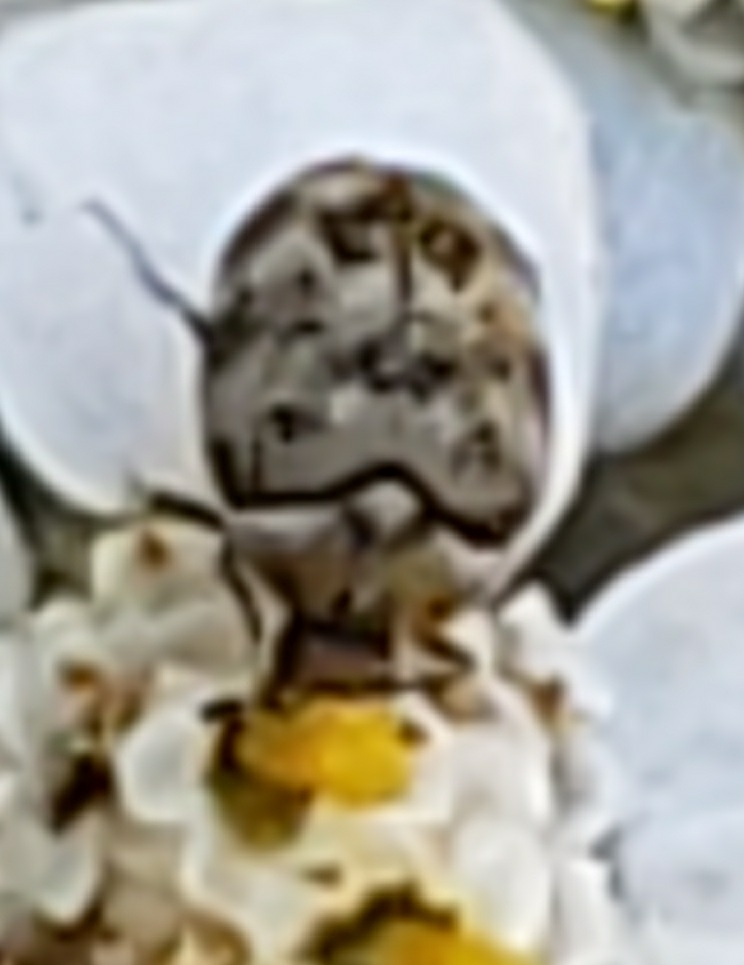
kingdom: Animalia
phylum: Arthropoda
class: Insecta
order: Coleoptera
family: Dermestidae
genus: Anthrenus
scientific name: Anthrenus verbasci
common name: Varied carpet beetle
